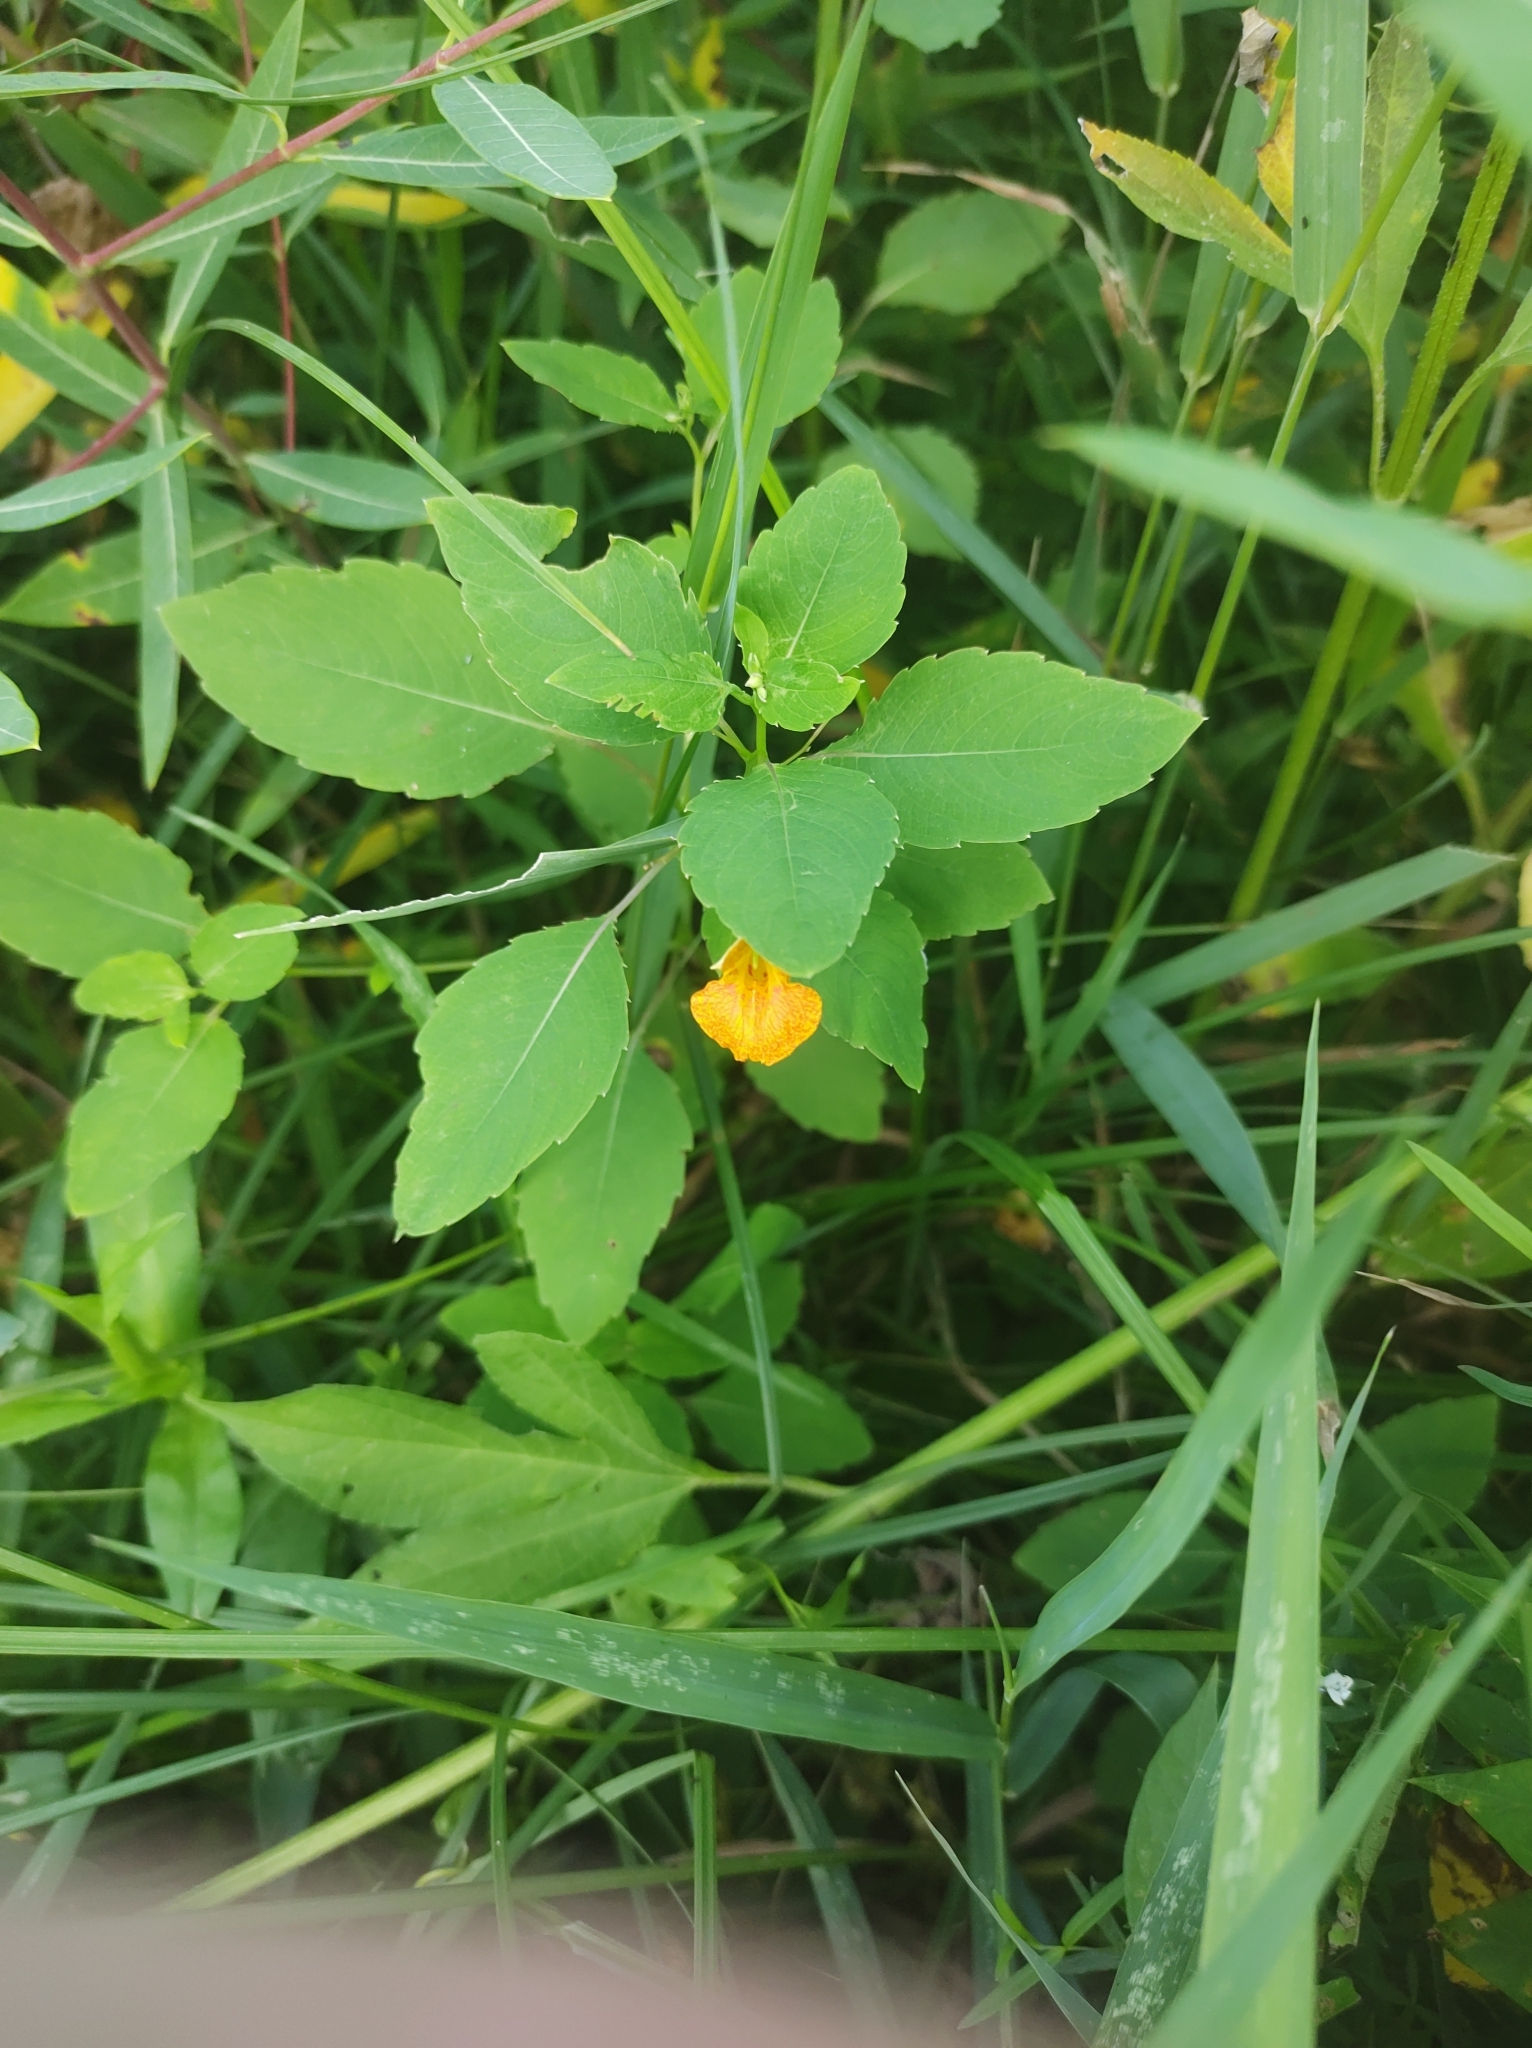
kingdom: Plantae
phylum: Tracheophyta
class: Magnoliopsida
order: Ericales
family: Balsaminaceae
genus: Impatiens
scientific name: Impatiens capensis
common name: Orange balsam
